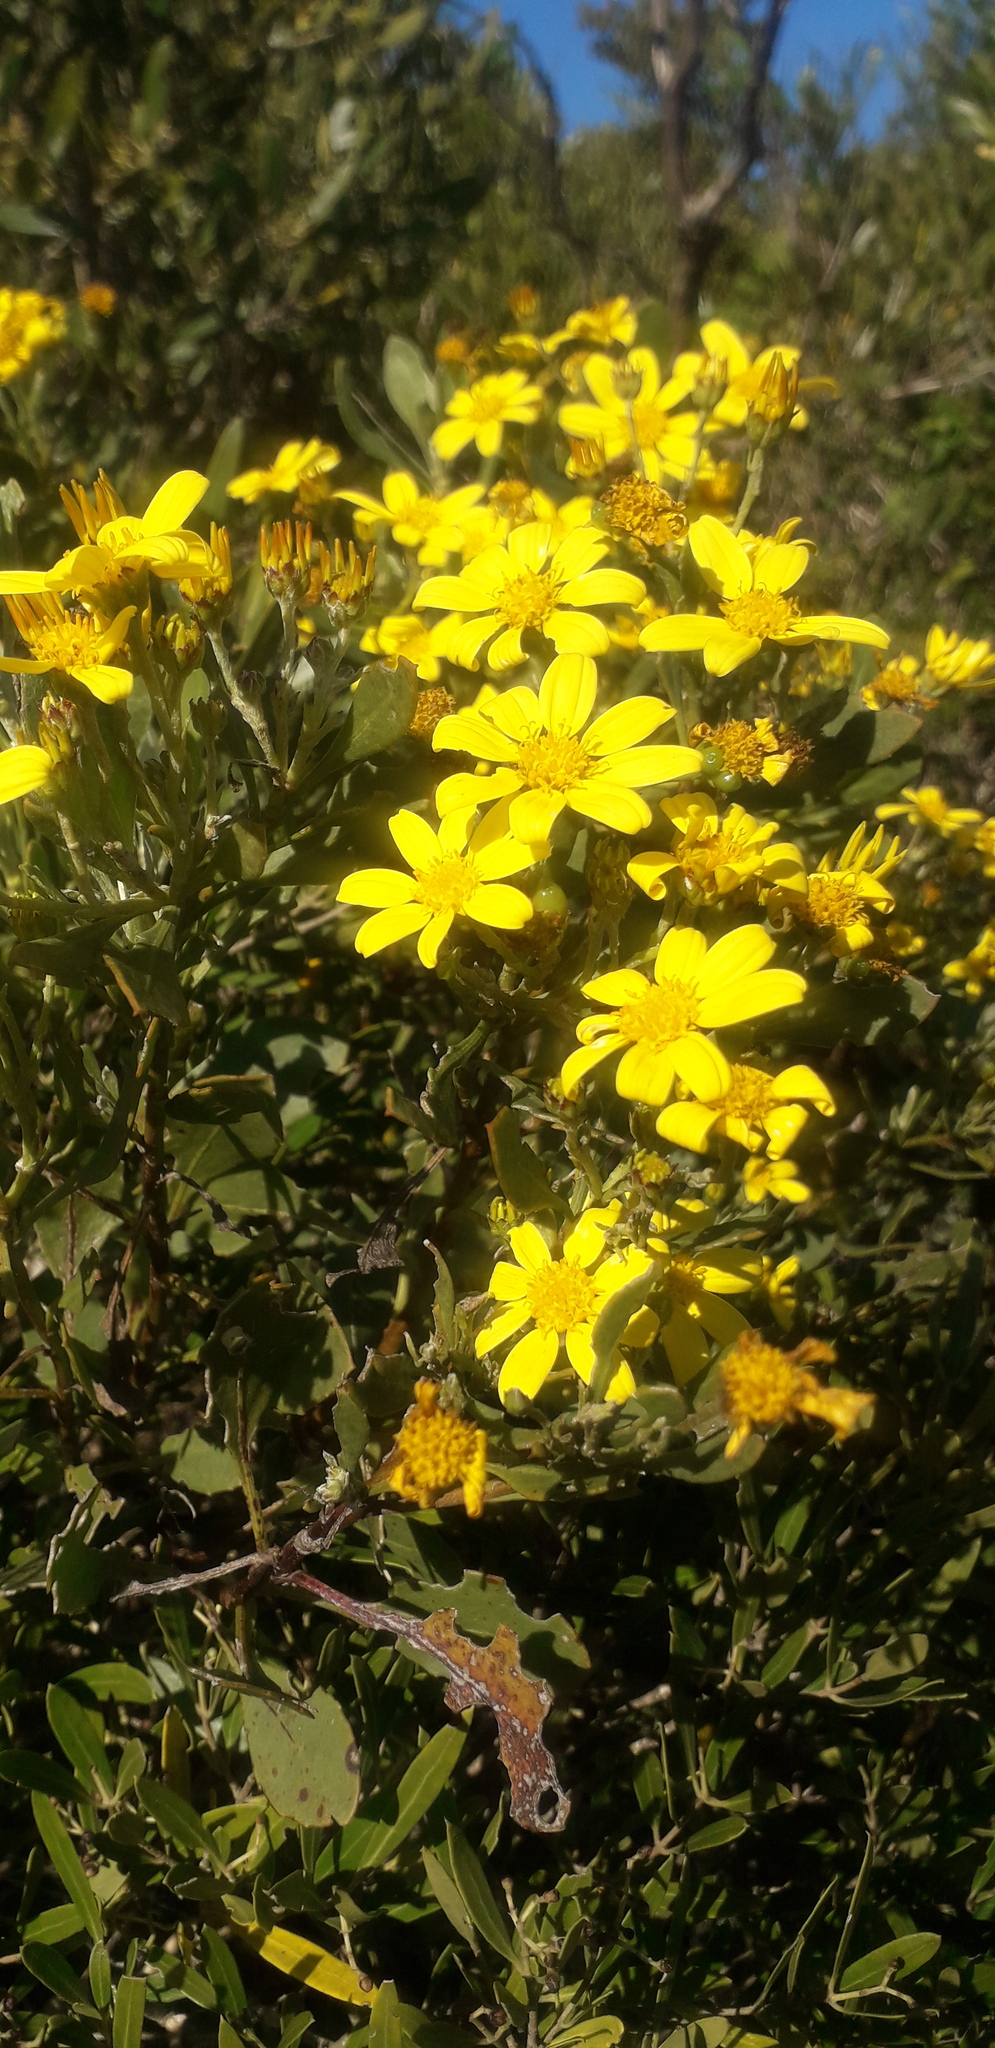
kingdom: Plantae
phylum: Tracheophyta
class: Magnoliopsida
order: Asterales
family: Asteraceae
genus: Osteospermum
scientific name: Osteospermum moniliferum
